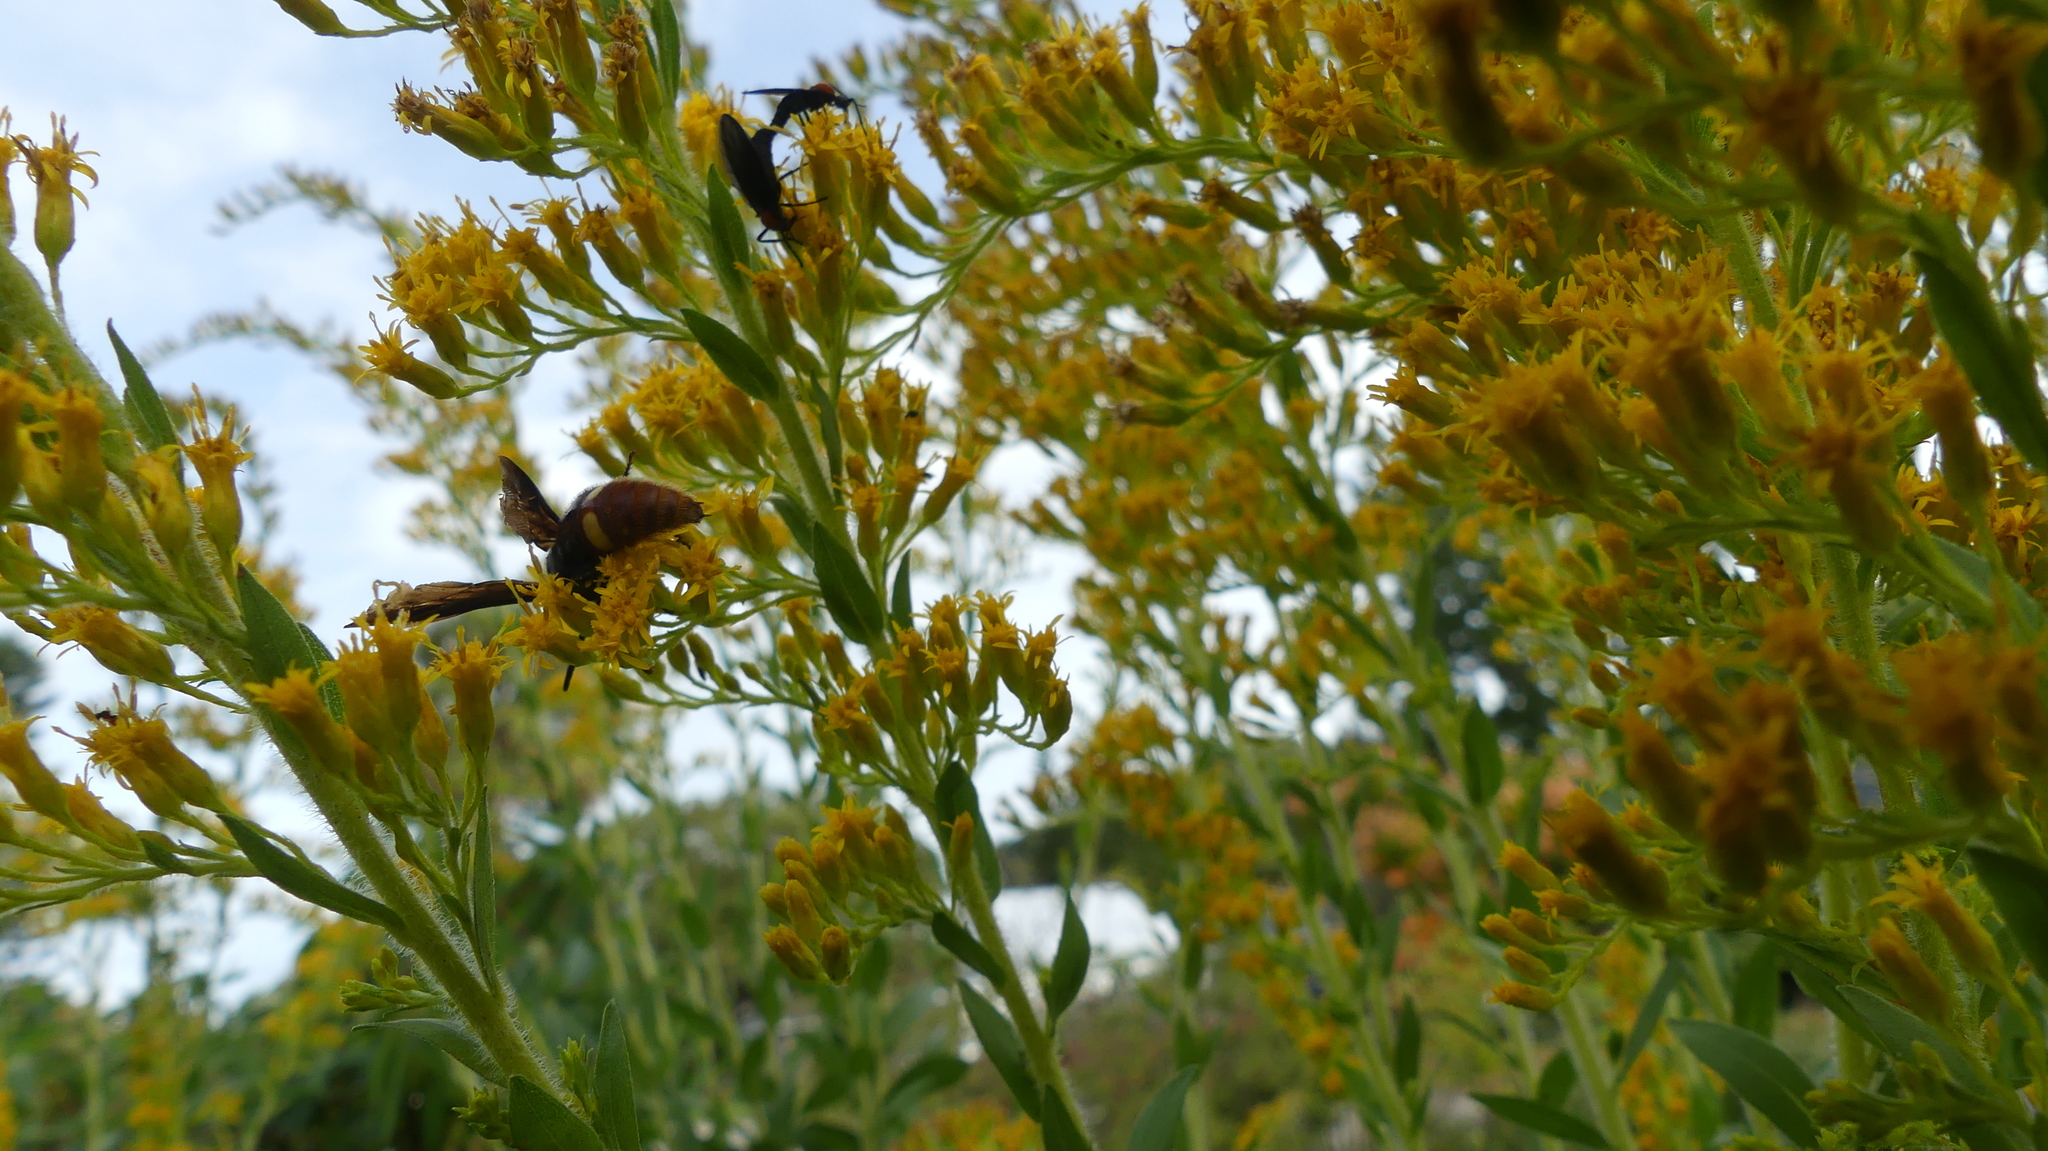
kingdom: Animalia
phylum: Arthropoda
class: Insecta
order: Hymenoptera
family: Scoliidae
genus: Scolia
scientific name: Scolia dubia
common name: Blue-winged scoliid wasp
